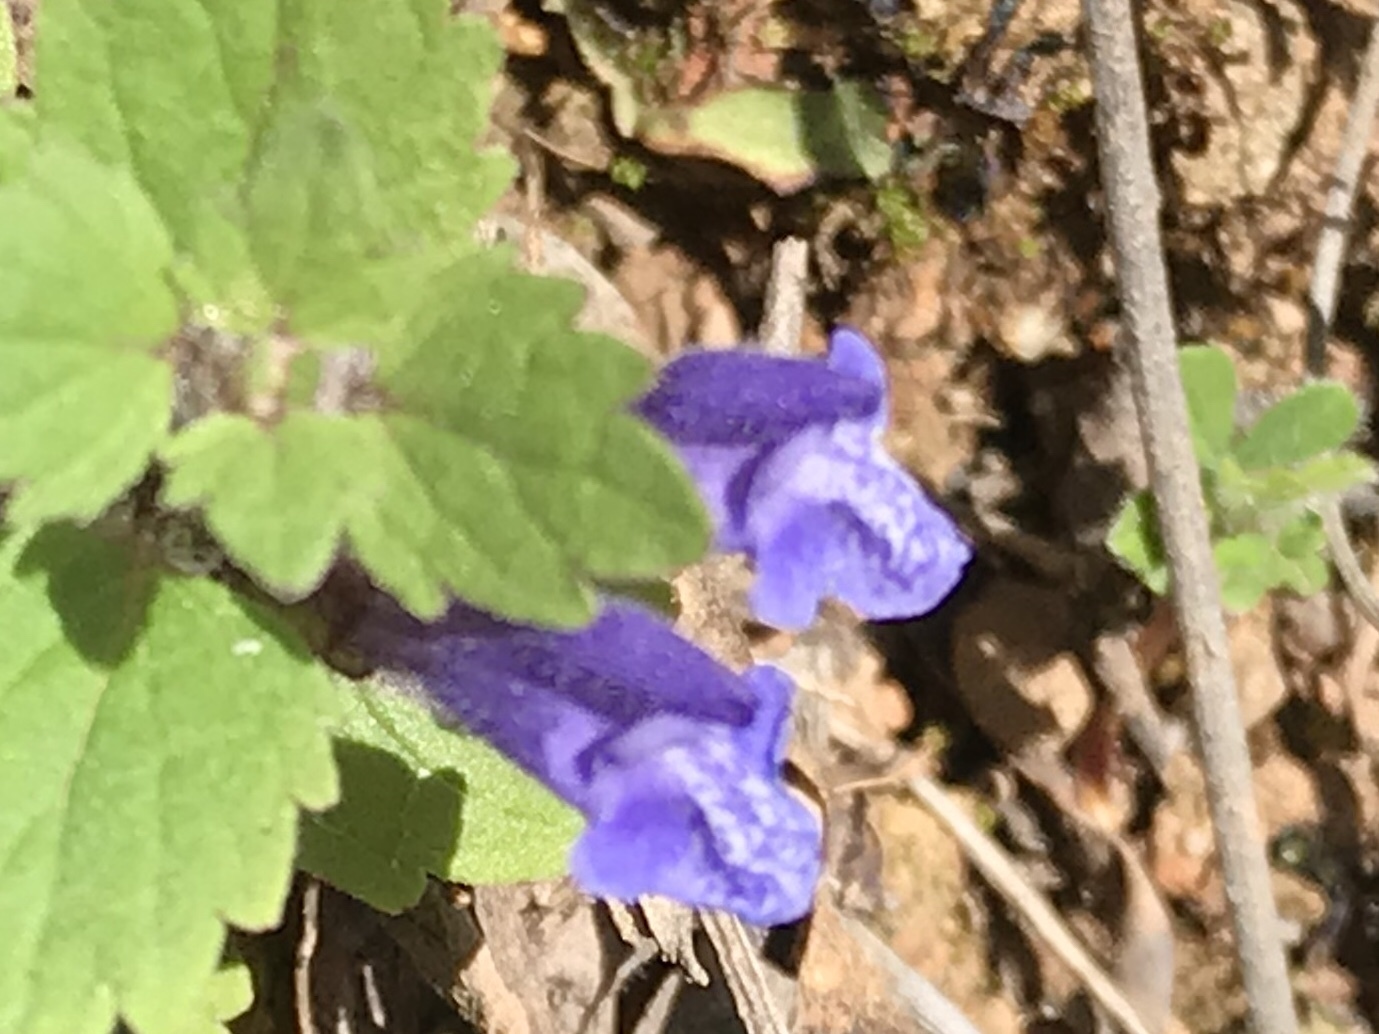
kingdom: Plantae
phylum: Tracheophyta
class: Magnoliopsida
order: Lamiales
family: Lamiaceae
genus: Scutellaria
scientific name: Scutellaria tuberosa
